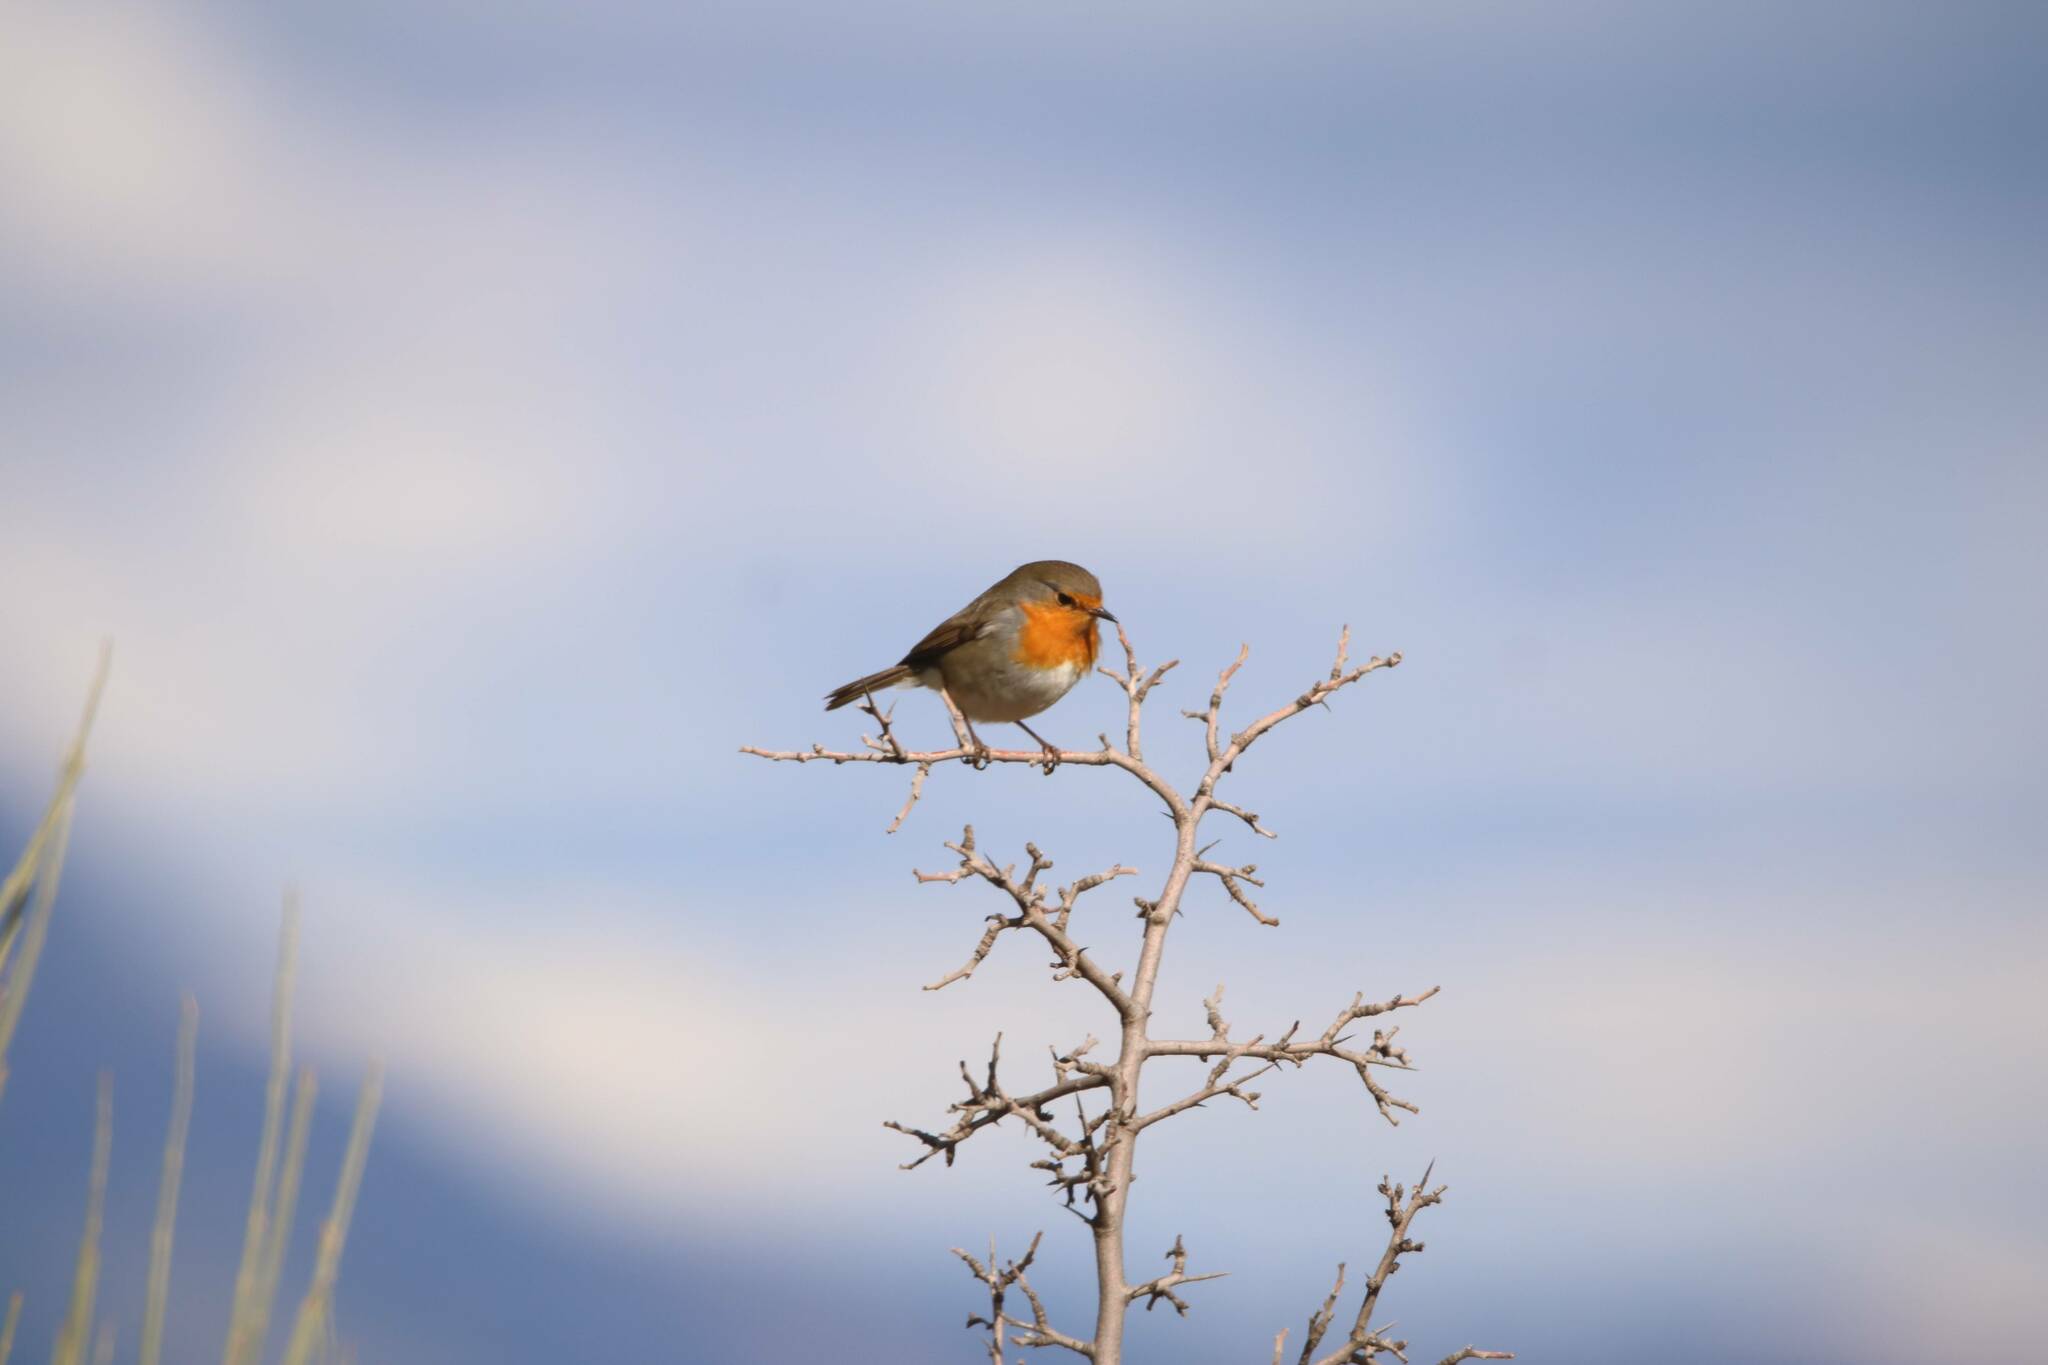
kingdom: Animalia
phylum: Chordata
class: Aves
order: Passeriformes
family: Muscicapidae
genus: Erithacus
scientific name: Erithacus rubecula
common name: European robin
